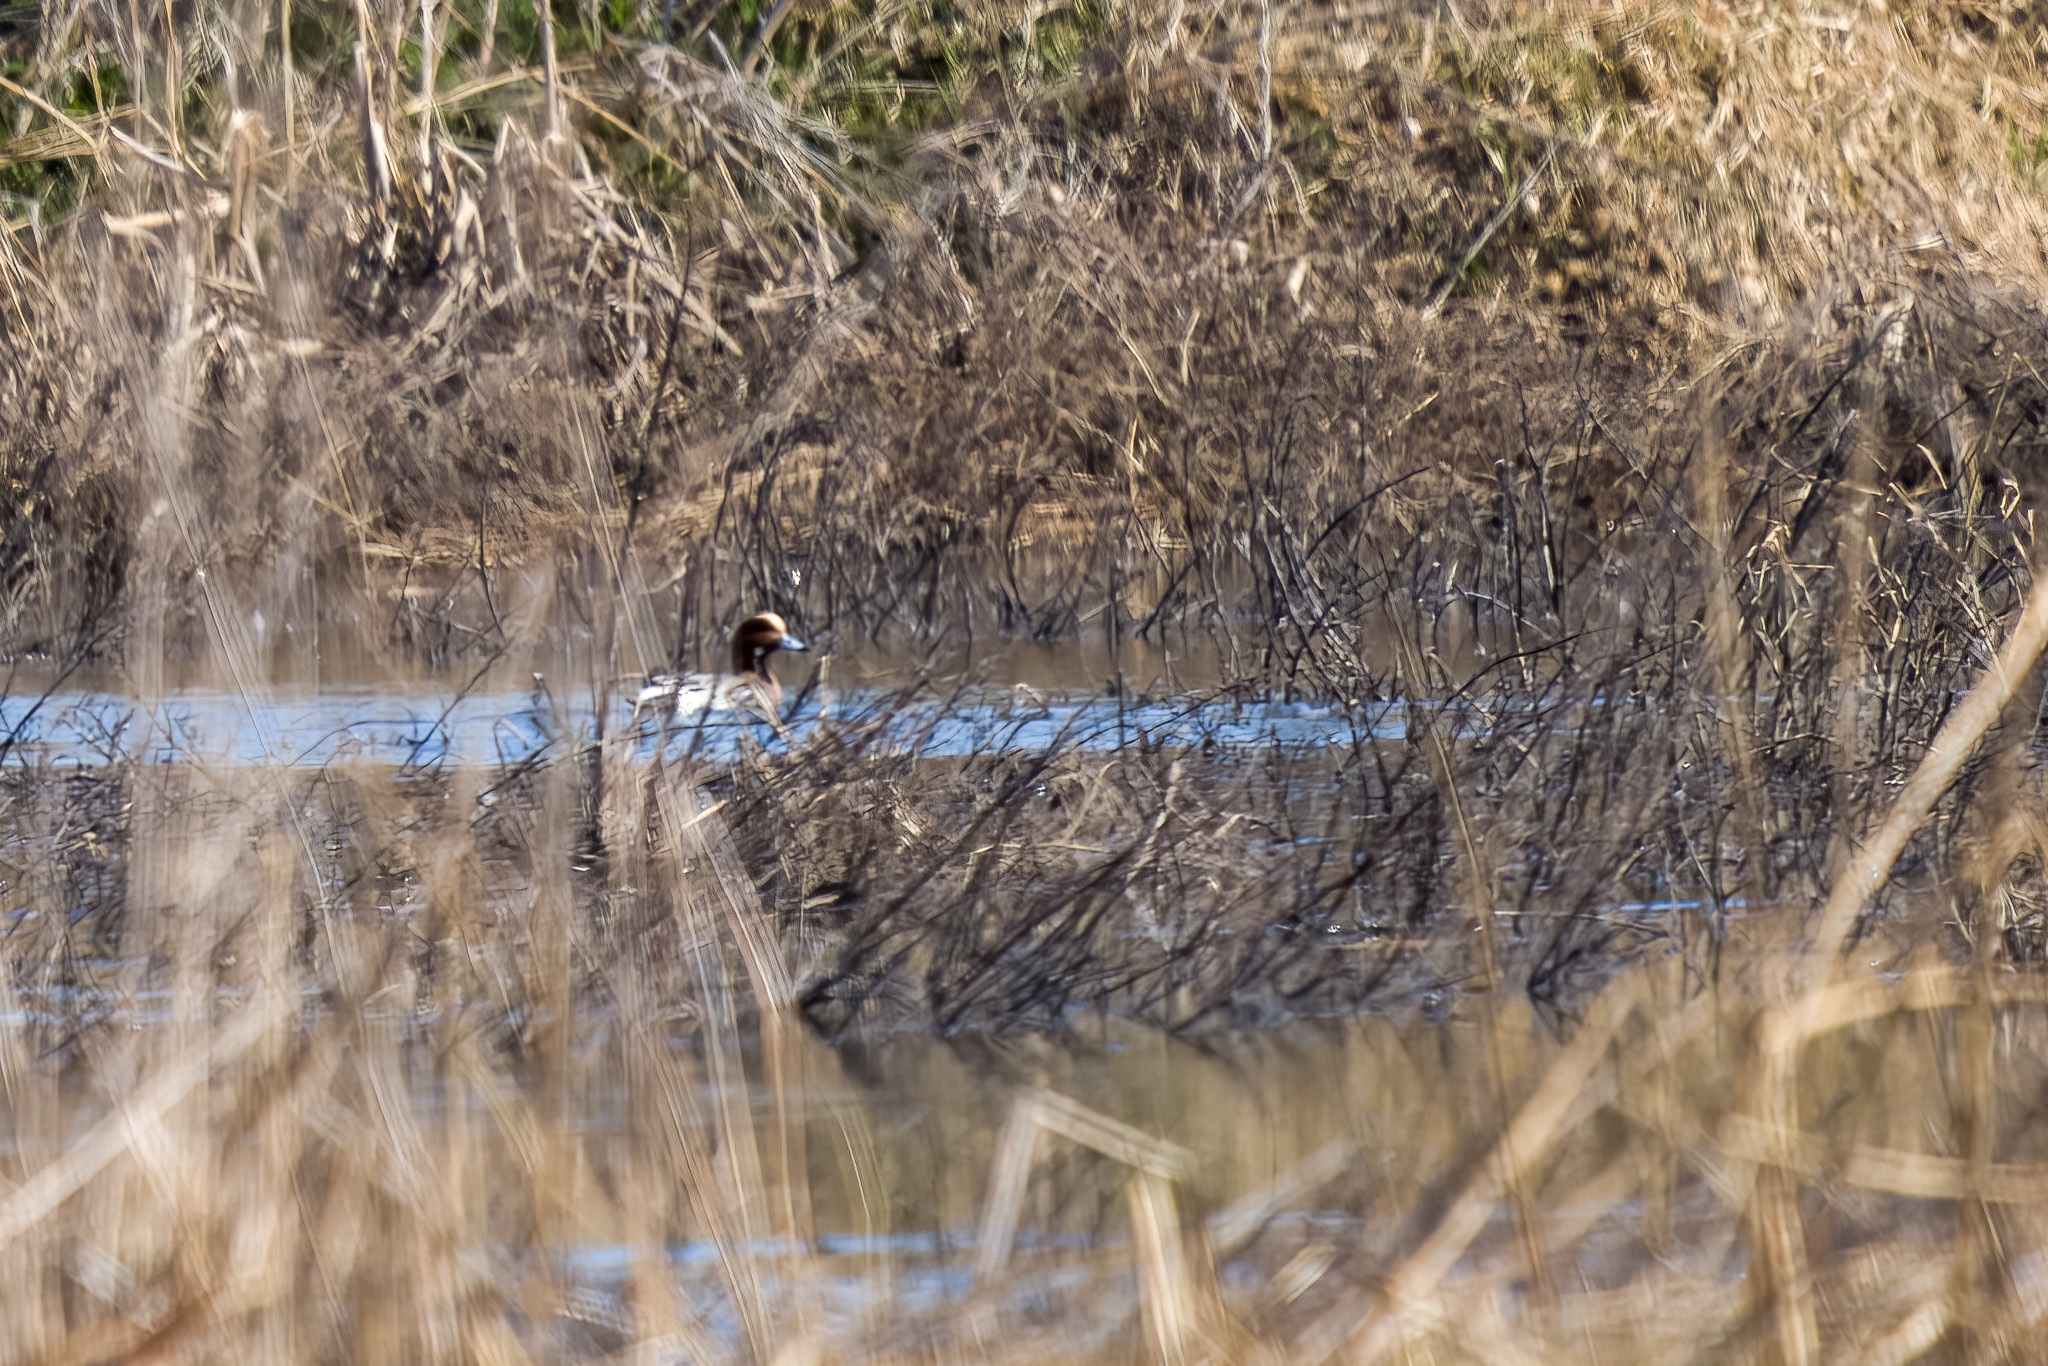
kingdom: Animalia
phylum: Chordata
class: Aves
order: Anseriformes
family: Anatidae
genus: Mareca
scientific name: Mareca penelope
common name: Eurasian wigeon
